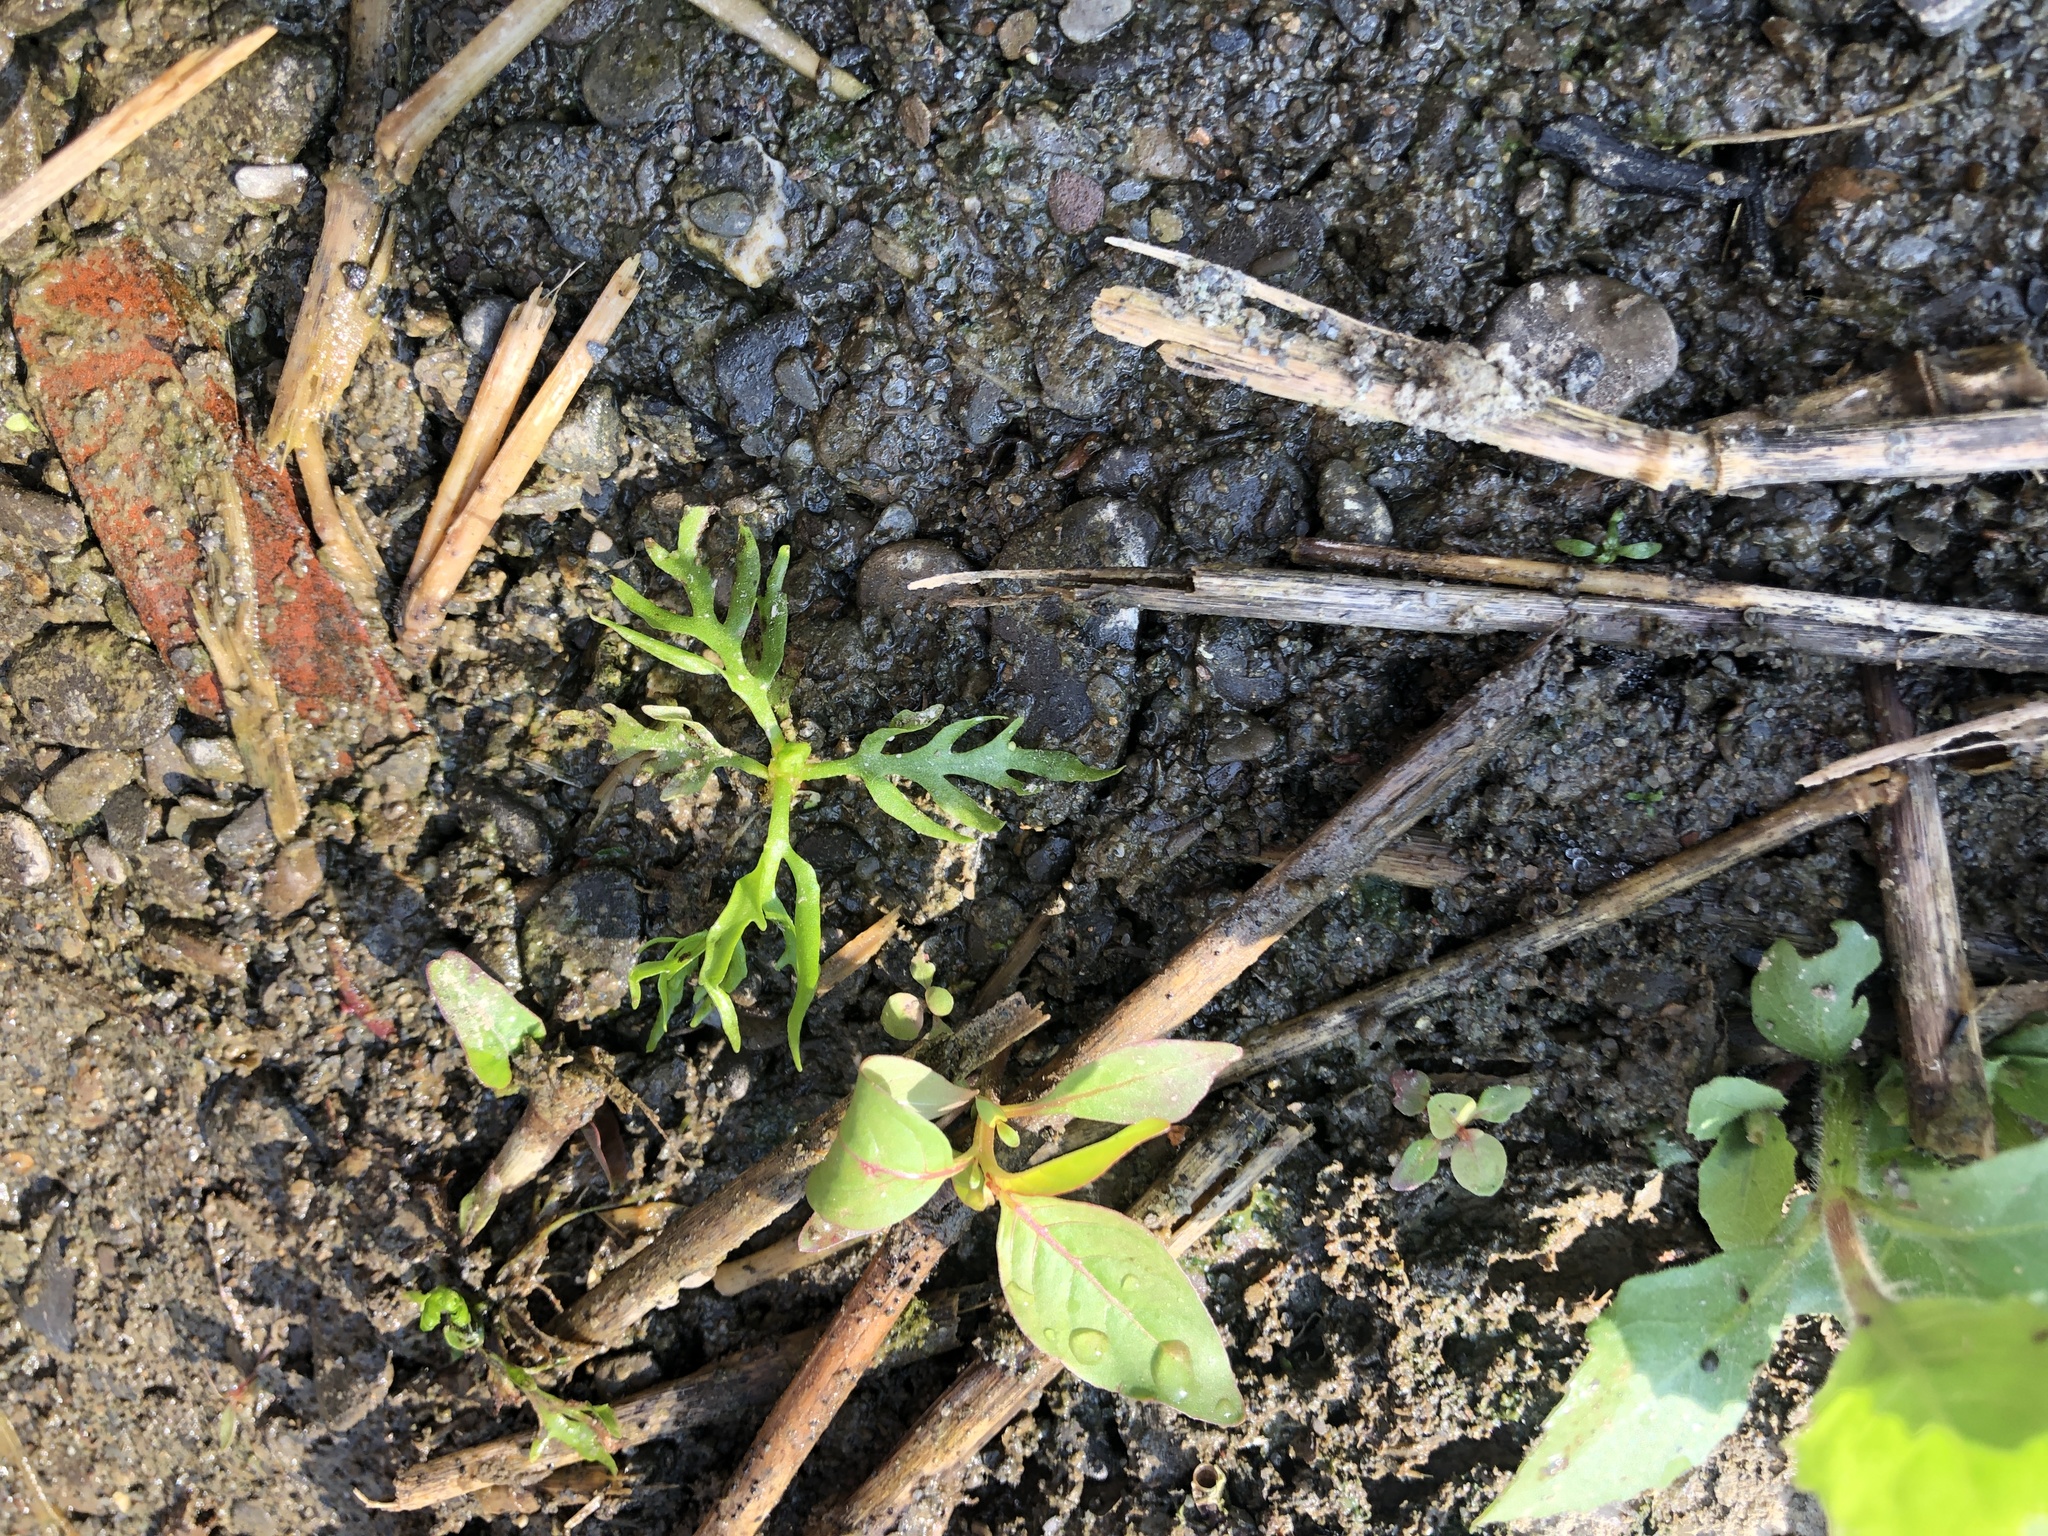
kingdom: Plantae
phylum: Tracheophyta
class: Polypodiopsida
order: Polypodiales
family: Pteridaceae
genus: Ceratopteris
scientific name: Ceratopteris thalictroides
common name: Water fern
